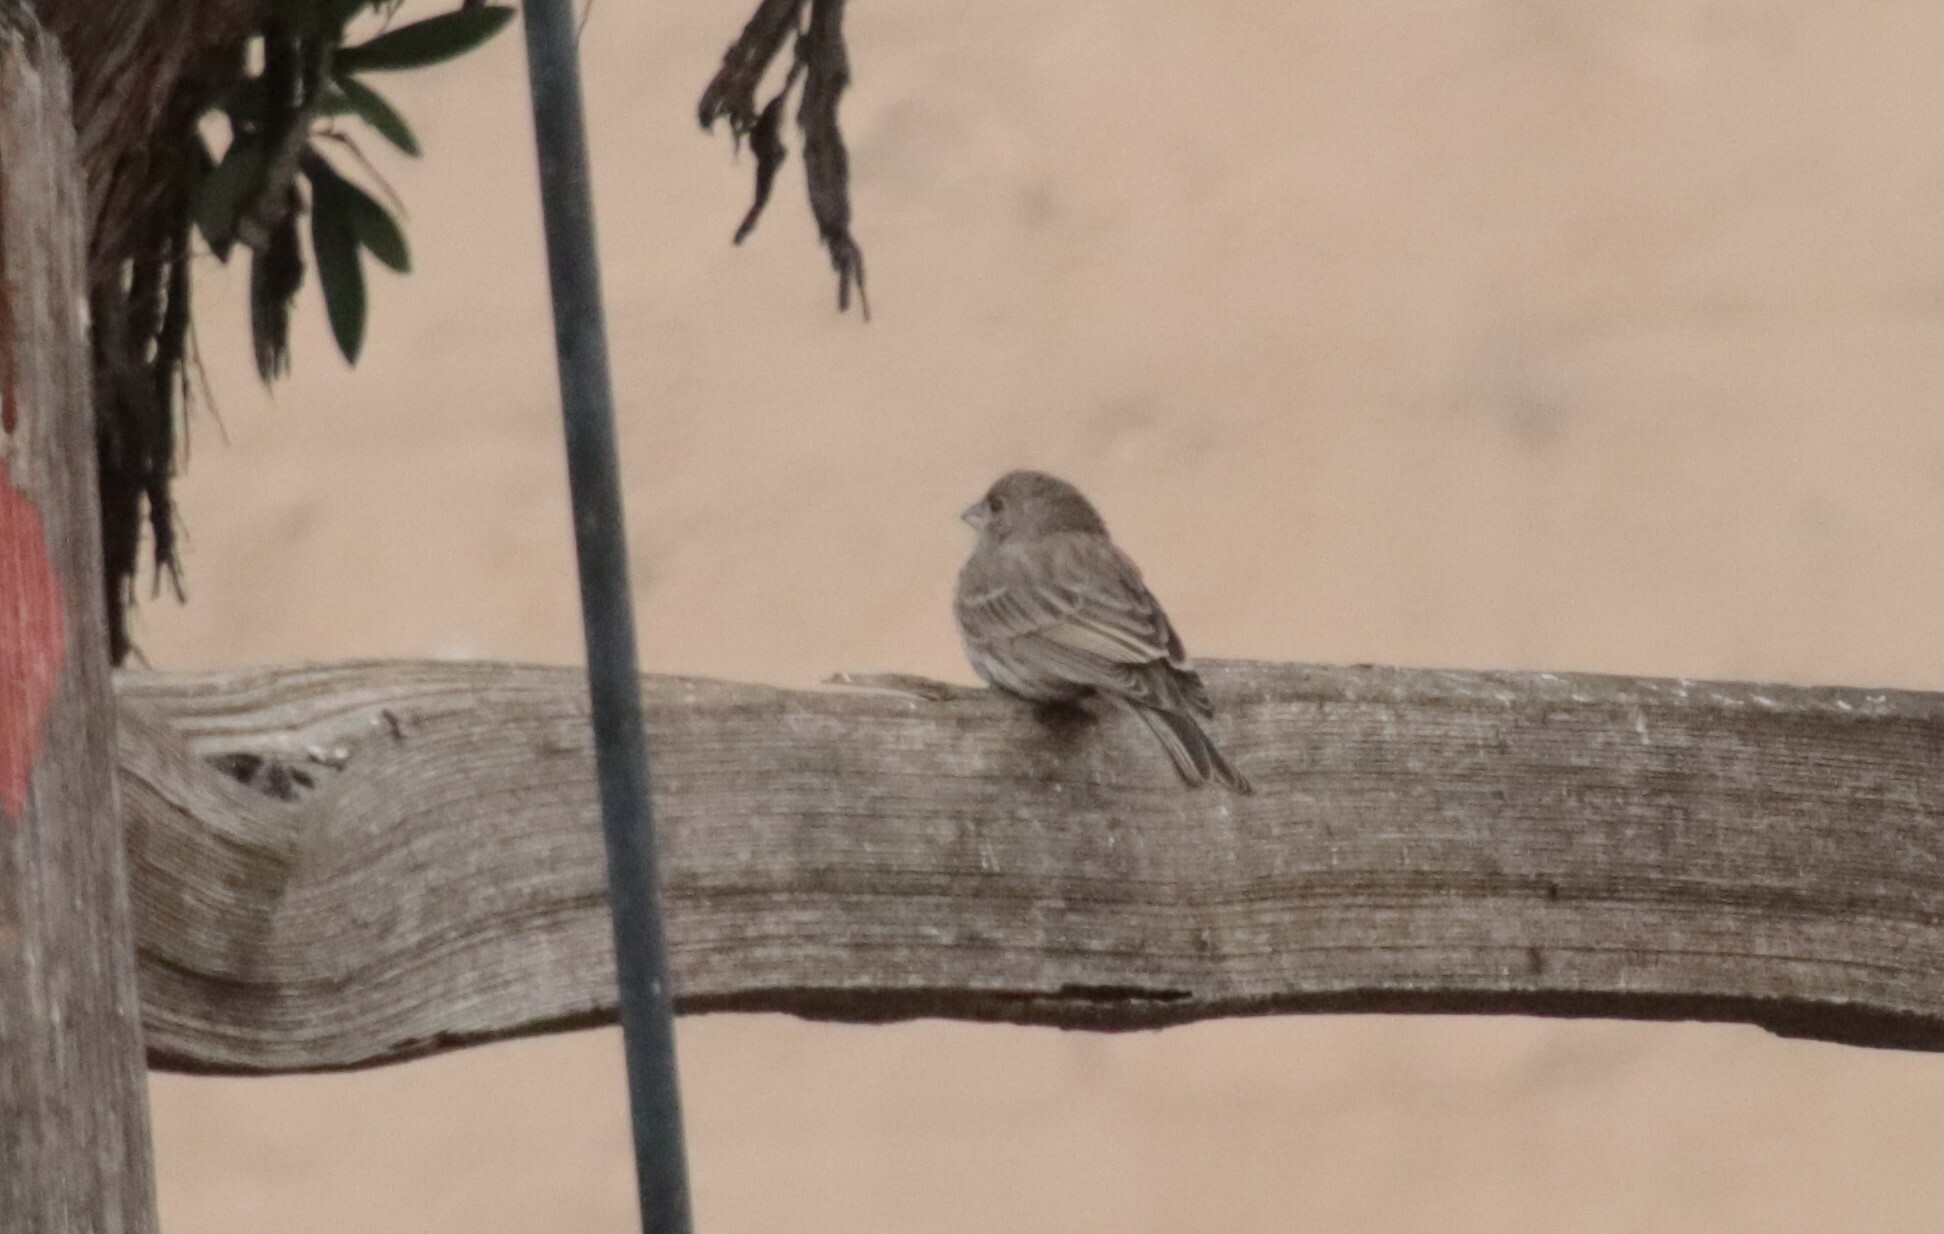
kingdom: Animalia
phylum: Chordata
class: Aves
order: Passeriformes
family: Fringillidae
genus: Haemorhous
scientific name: Haemorhous mexicanus
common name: House finch
